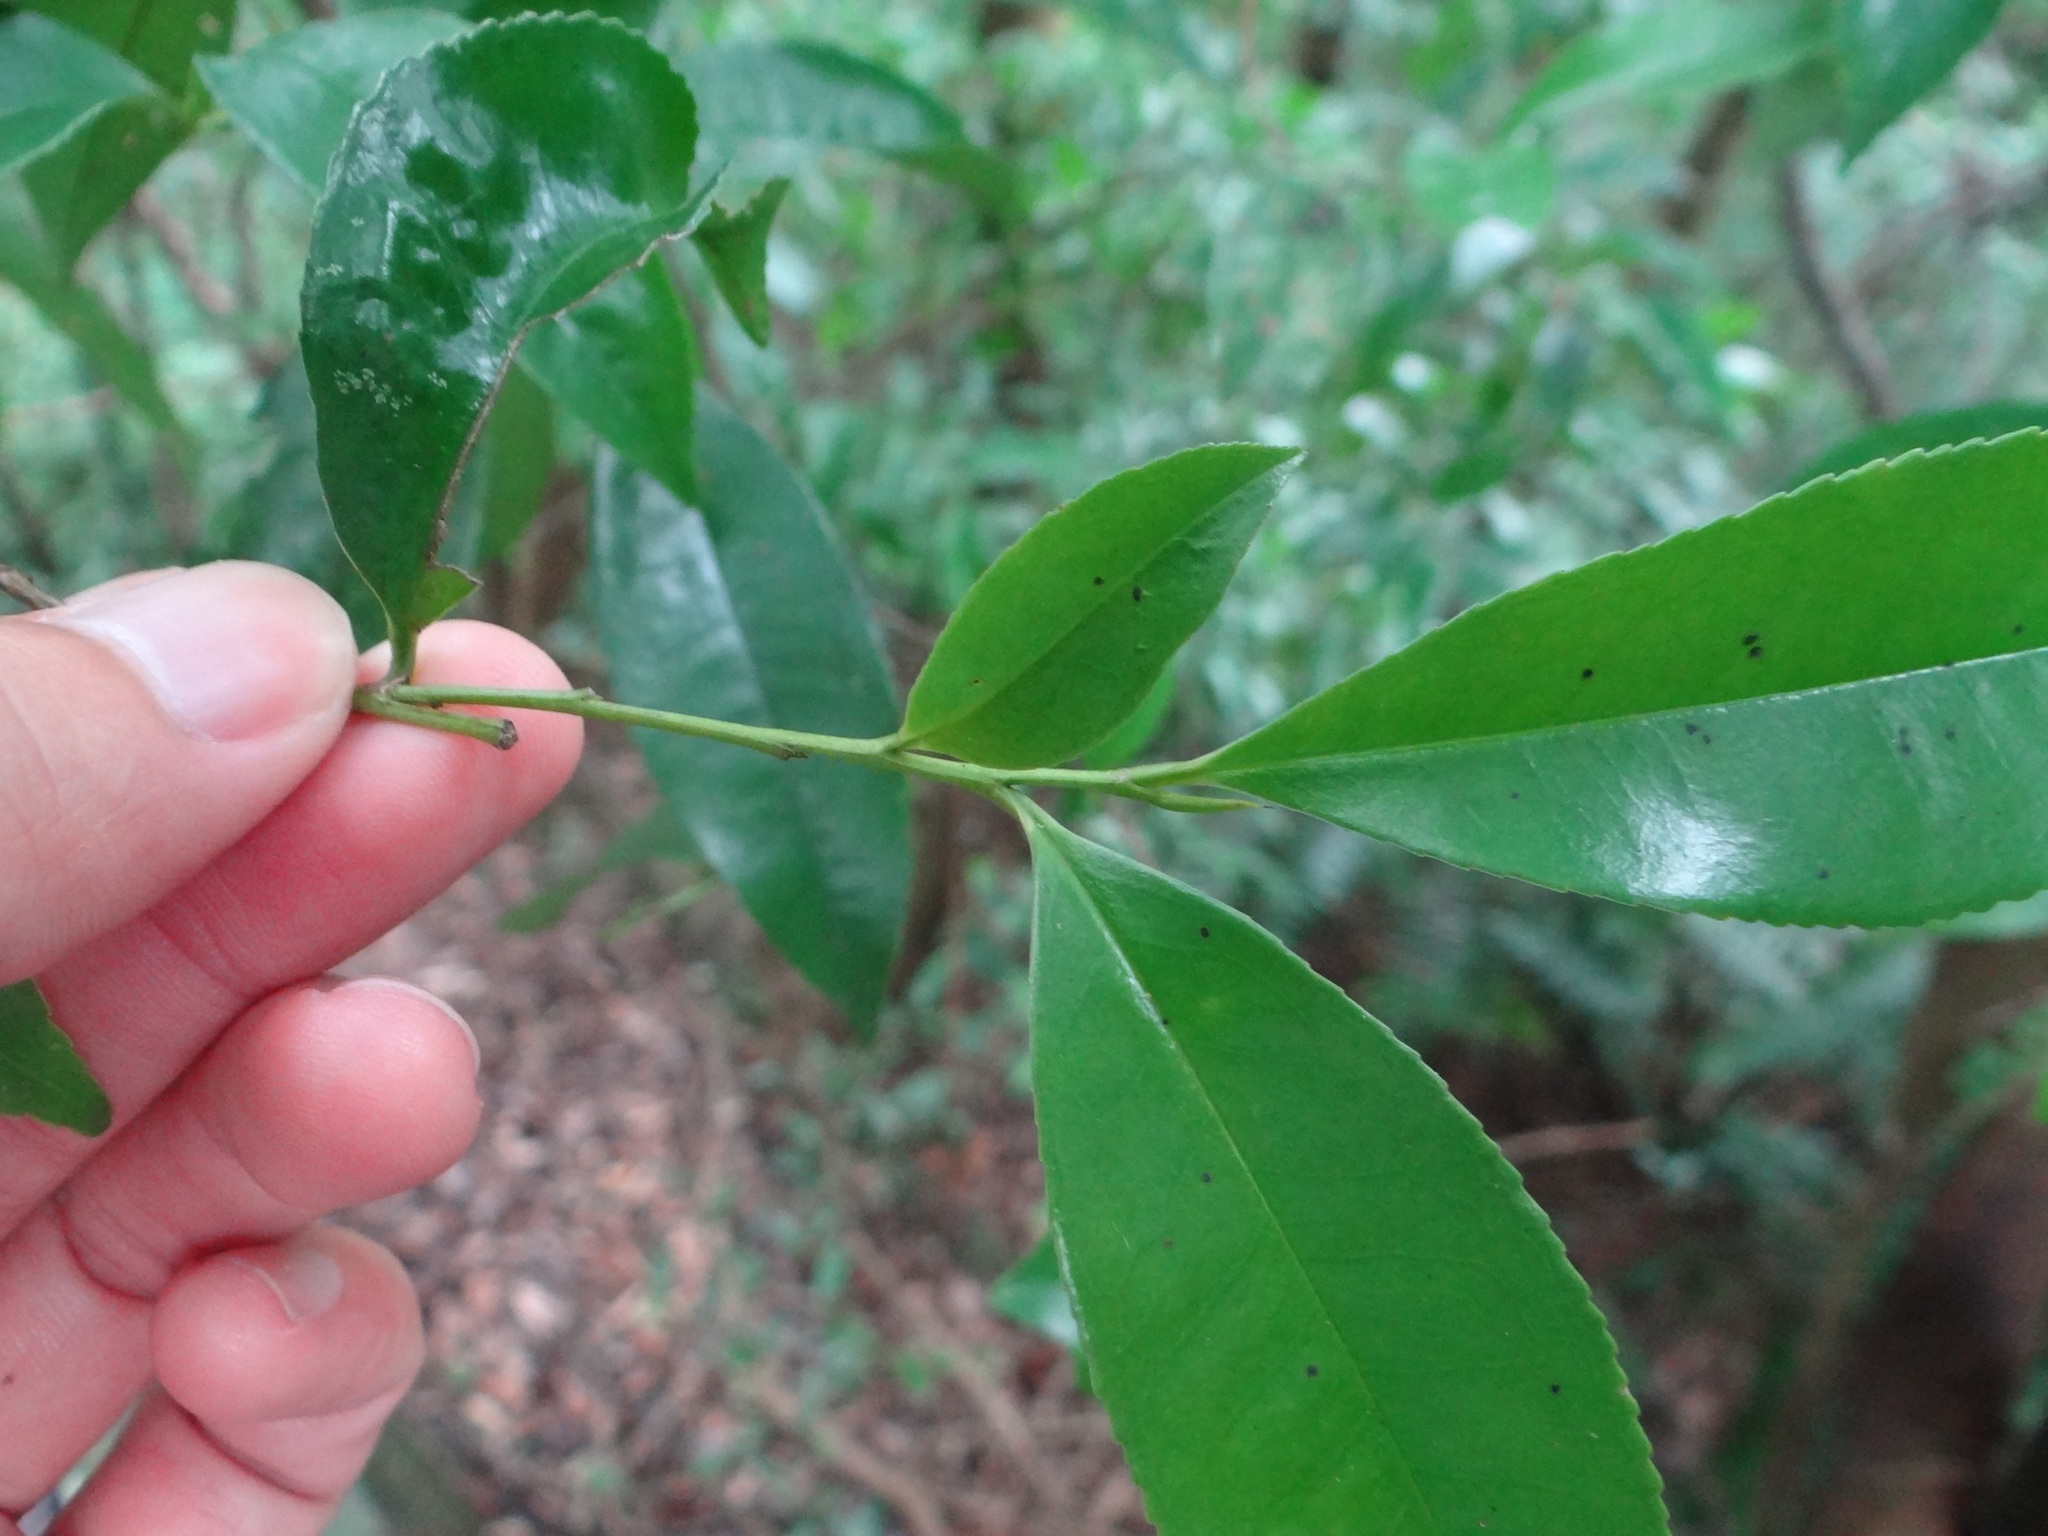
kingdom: Plantae
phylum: Tracheophyta
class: Magnoliopsida
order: Ericales
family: Pentaphylacaceae
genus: Eurya
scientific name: Eurya nitida
